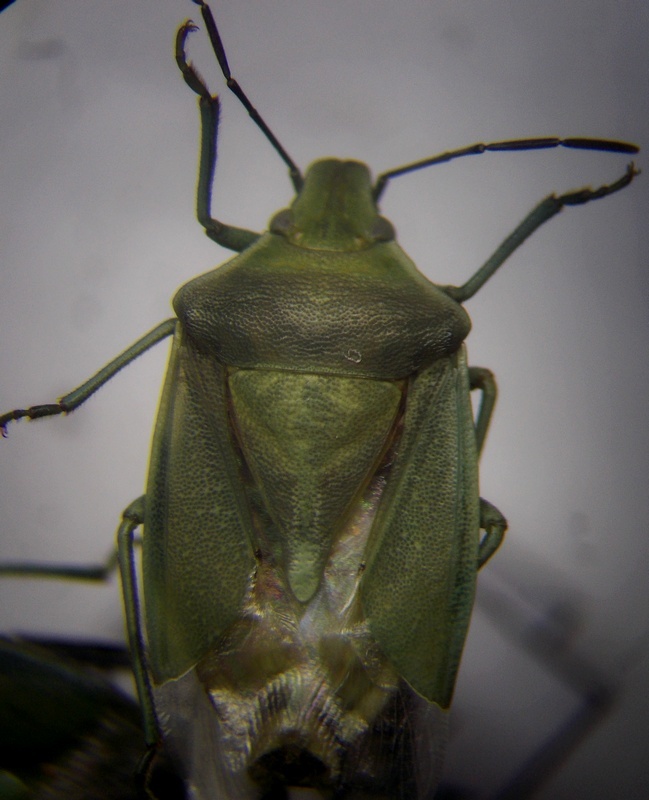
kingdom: Animalia
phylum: Arthropoda
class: Insecta
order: Hemiptera
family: Pentatomidae
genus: Brachynema
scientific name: Brachynema germarii
